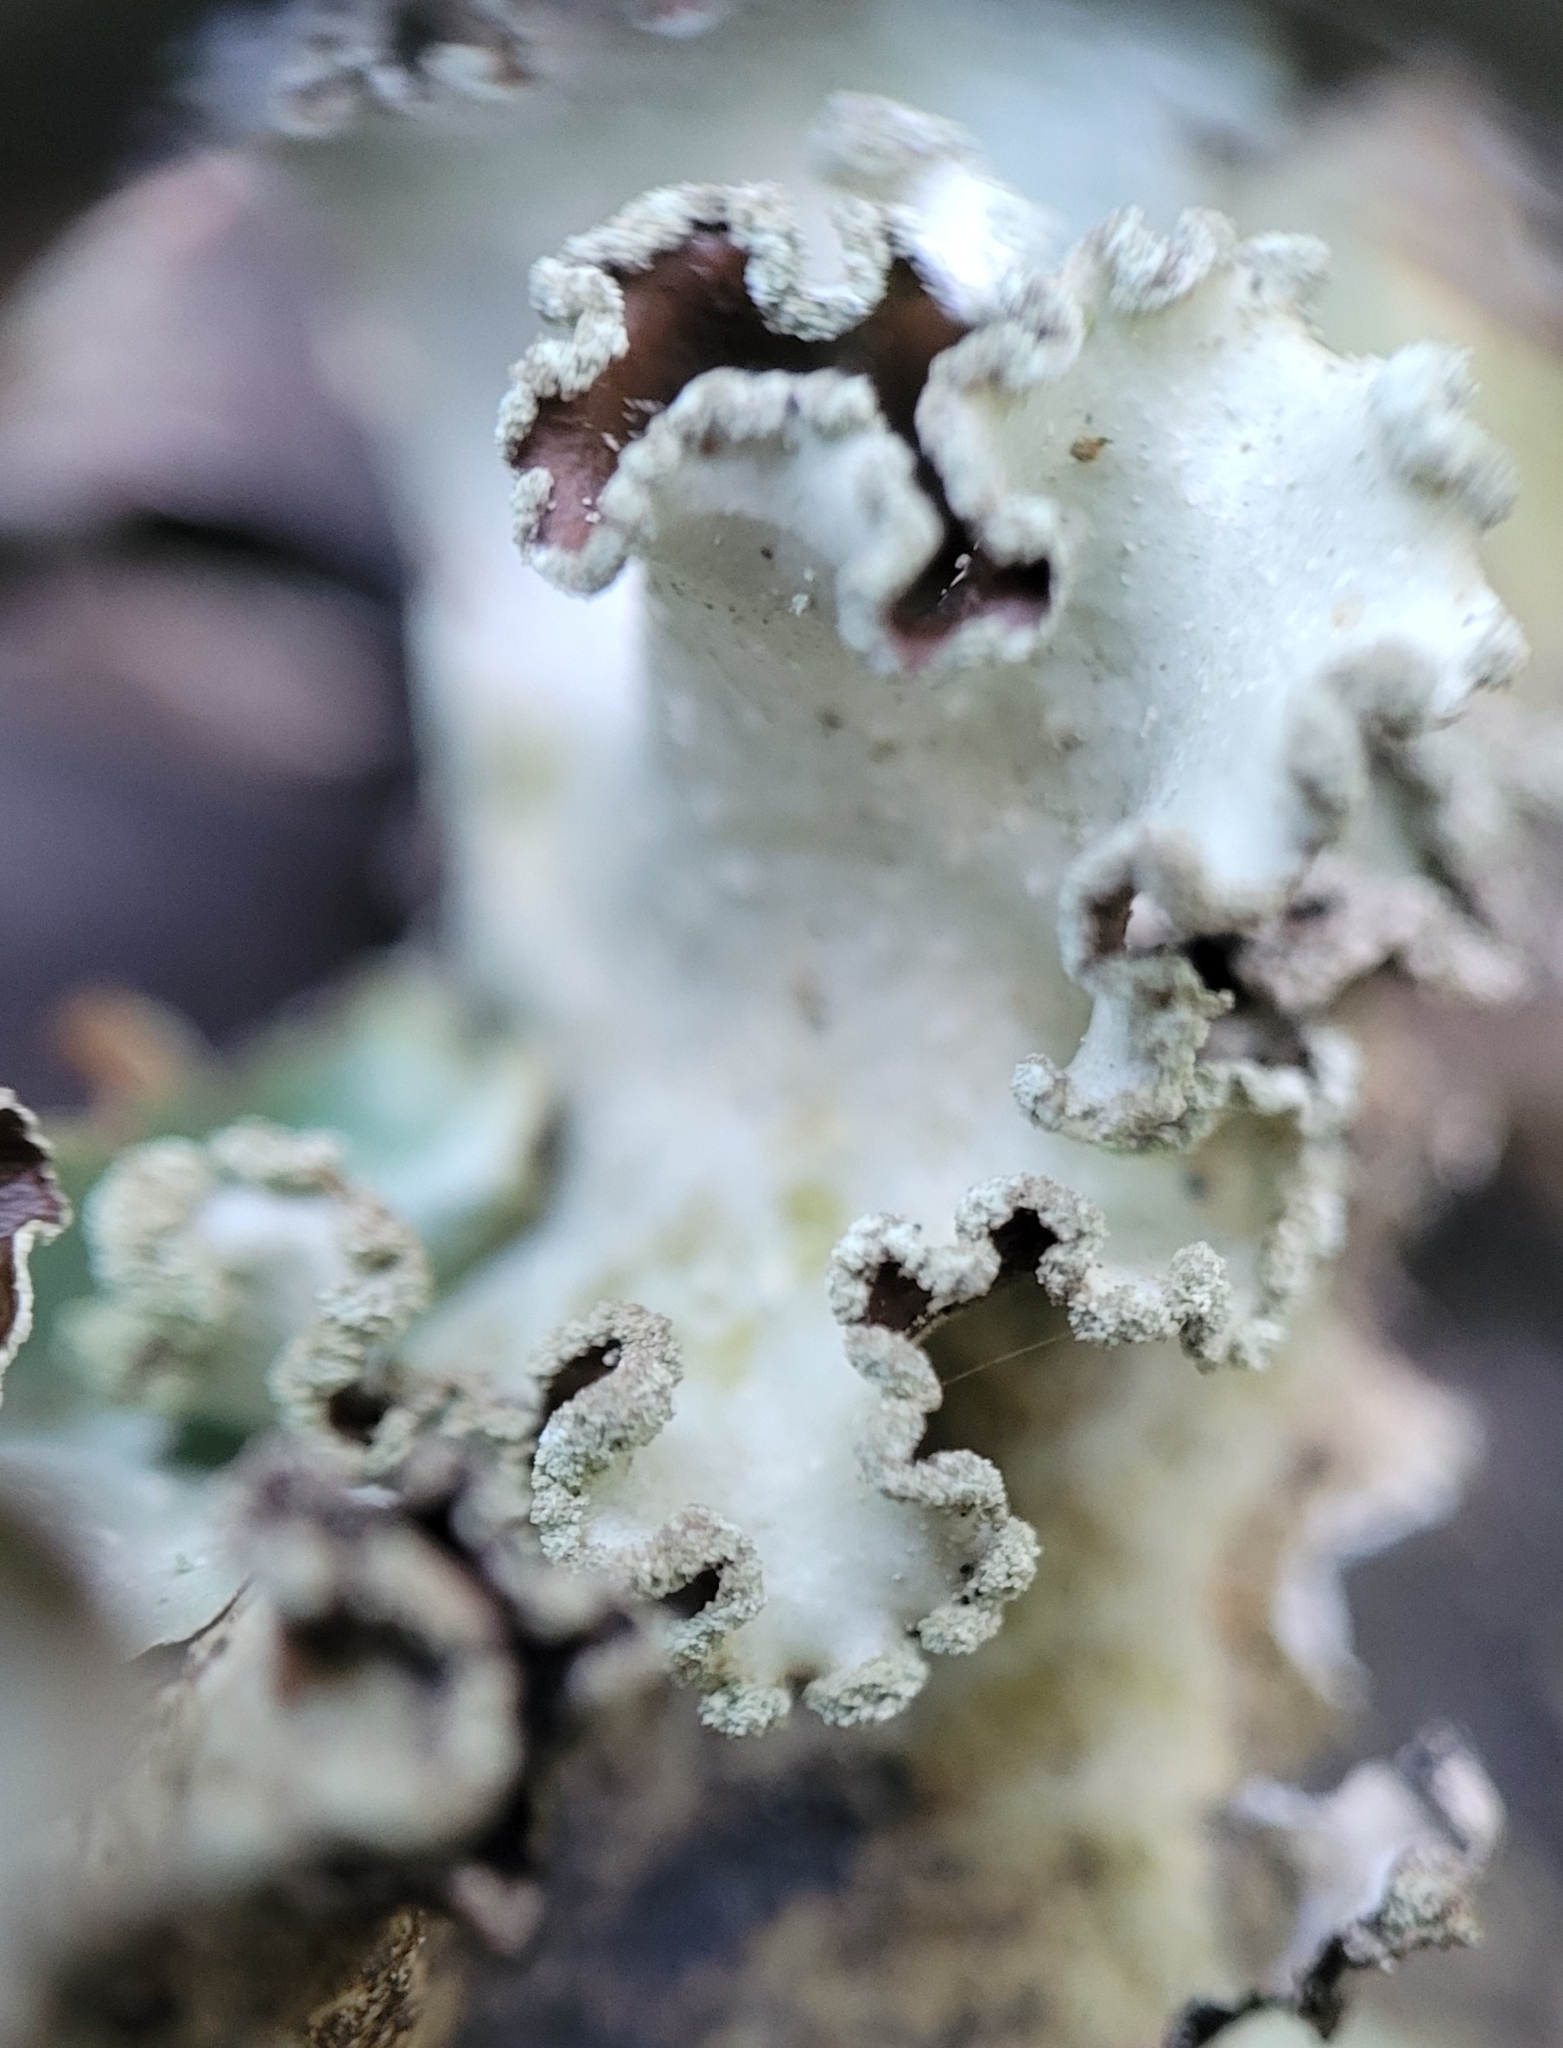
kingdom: Fungi
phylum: Ascomycota
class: Lecanoromycetes
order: Lecanorales
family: Parmeliaceae
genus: Cetrelia
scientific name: Cetrelia cetrarioides
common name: Speckled iceland lichen
